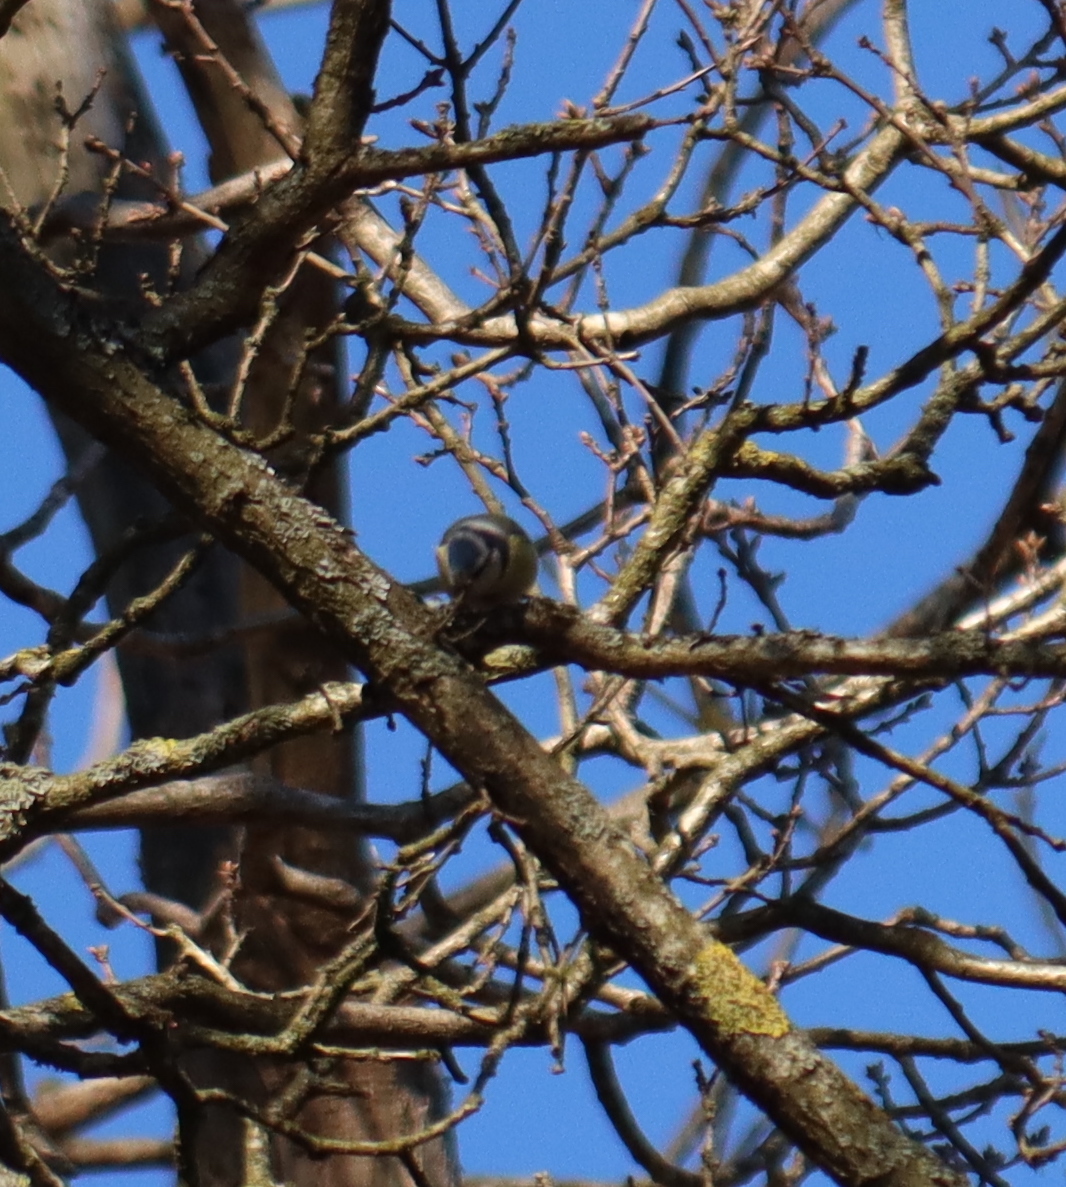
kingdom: Animalia
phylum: Chordata
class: Aves
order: Passeriformes
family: Paridae
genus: Cyanistes
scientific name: Cyanistes caeruleus
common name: Eurasian blue tit
